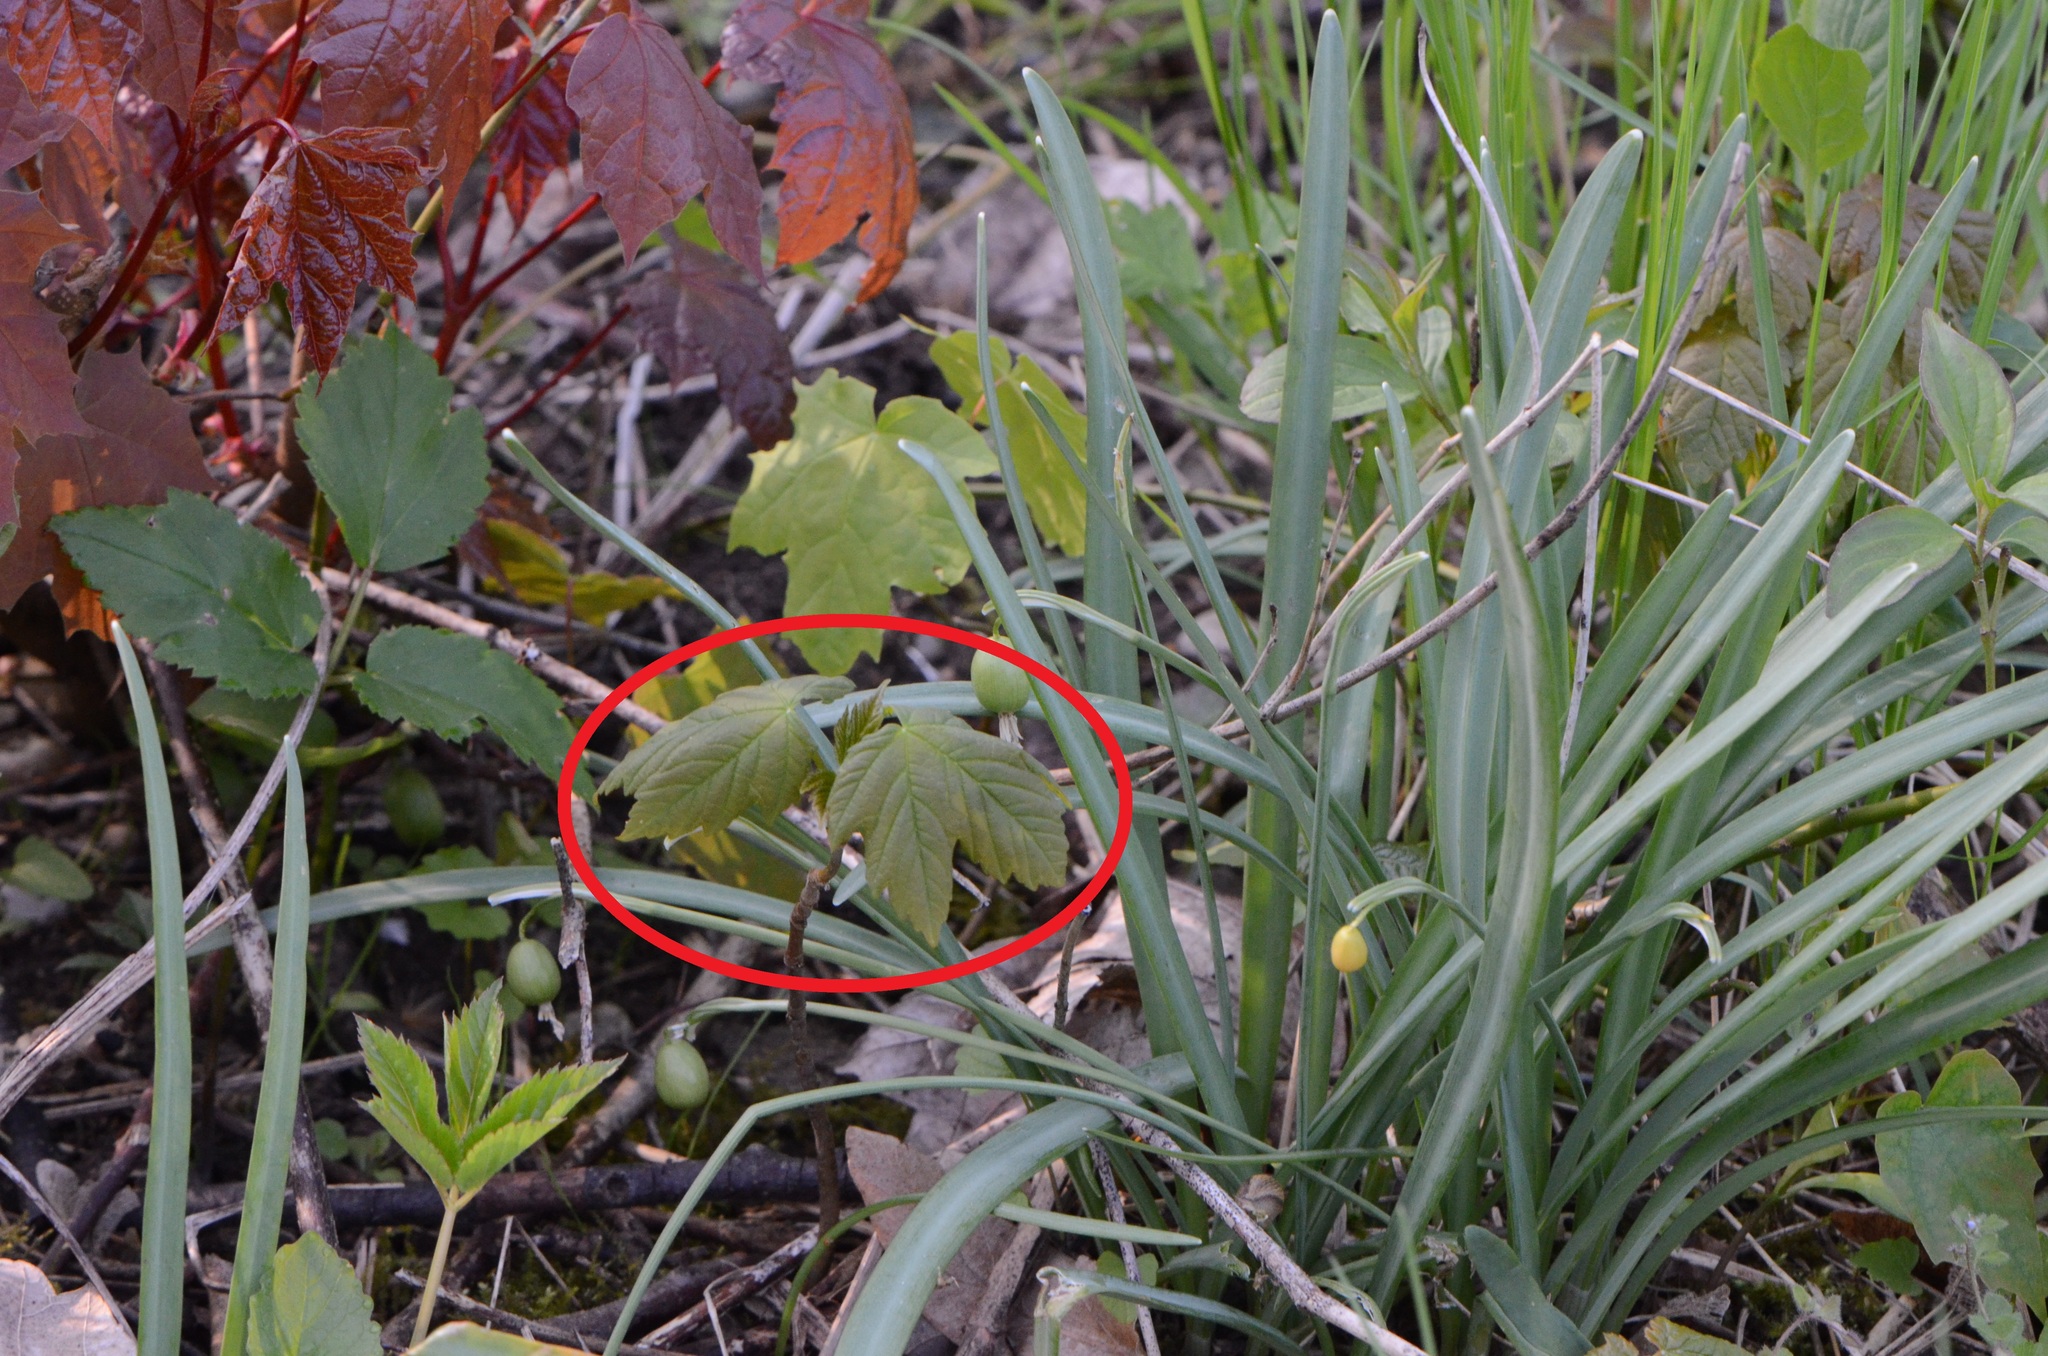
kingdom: Plantae
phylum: Tracheophyta
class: Magnoliopsida
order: Sapindales
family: Sapindaceae
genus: Acer
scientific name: Acer pseudoplatanus
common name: Sycamore
